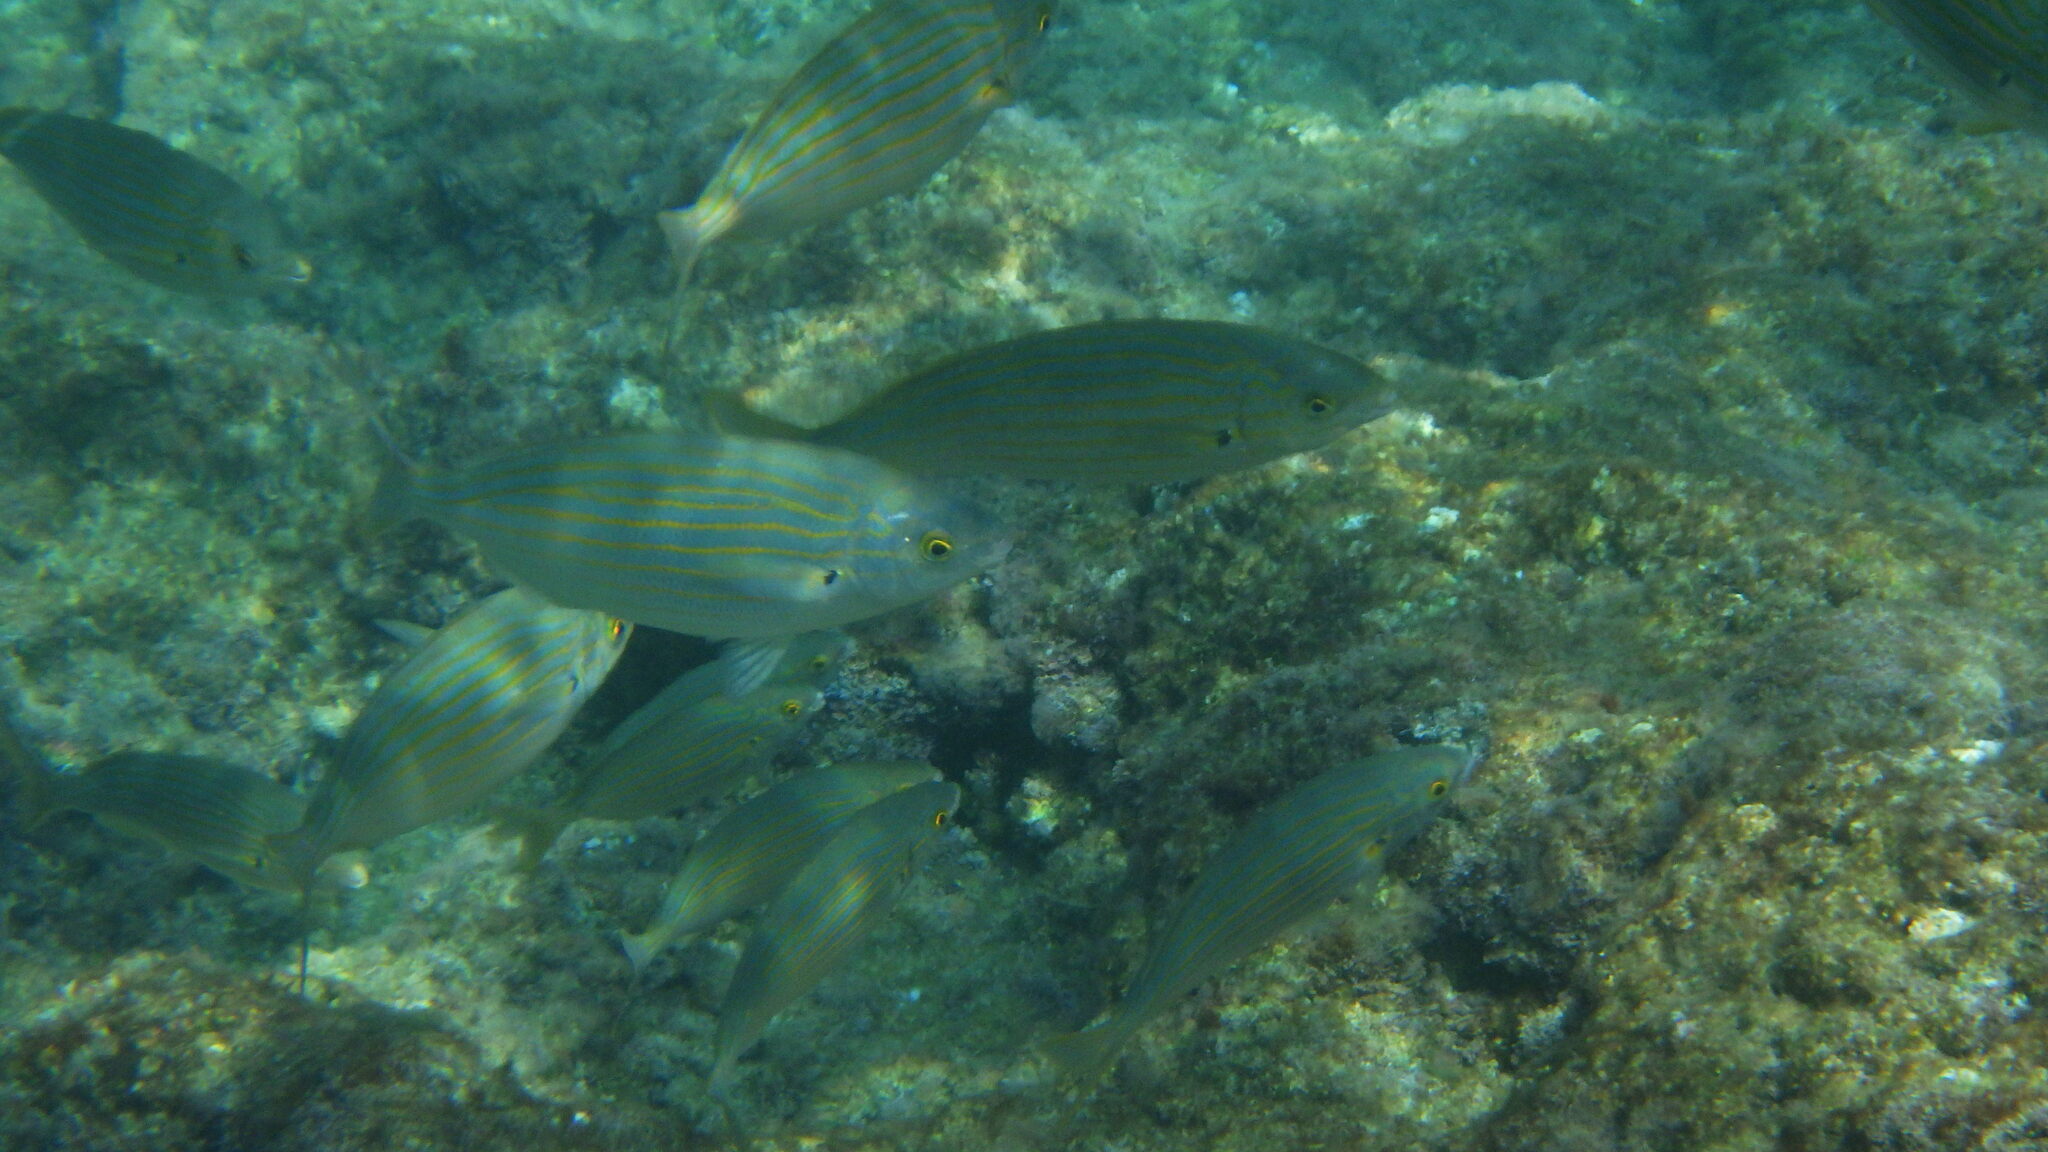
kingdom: Animalia
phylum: Chordata
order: Perciformes
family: Sparidae
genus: Sarpa
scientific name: Sarpa salpa
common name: Salema
